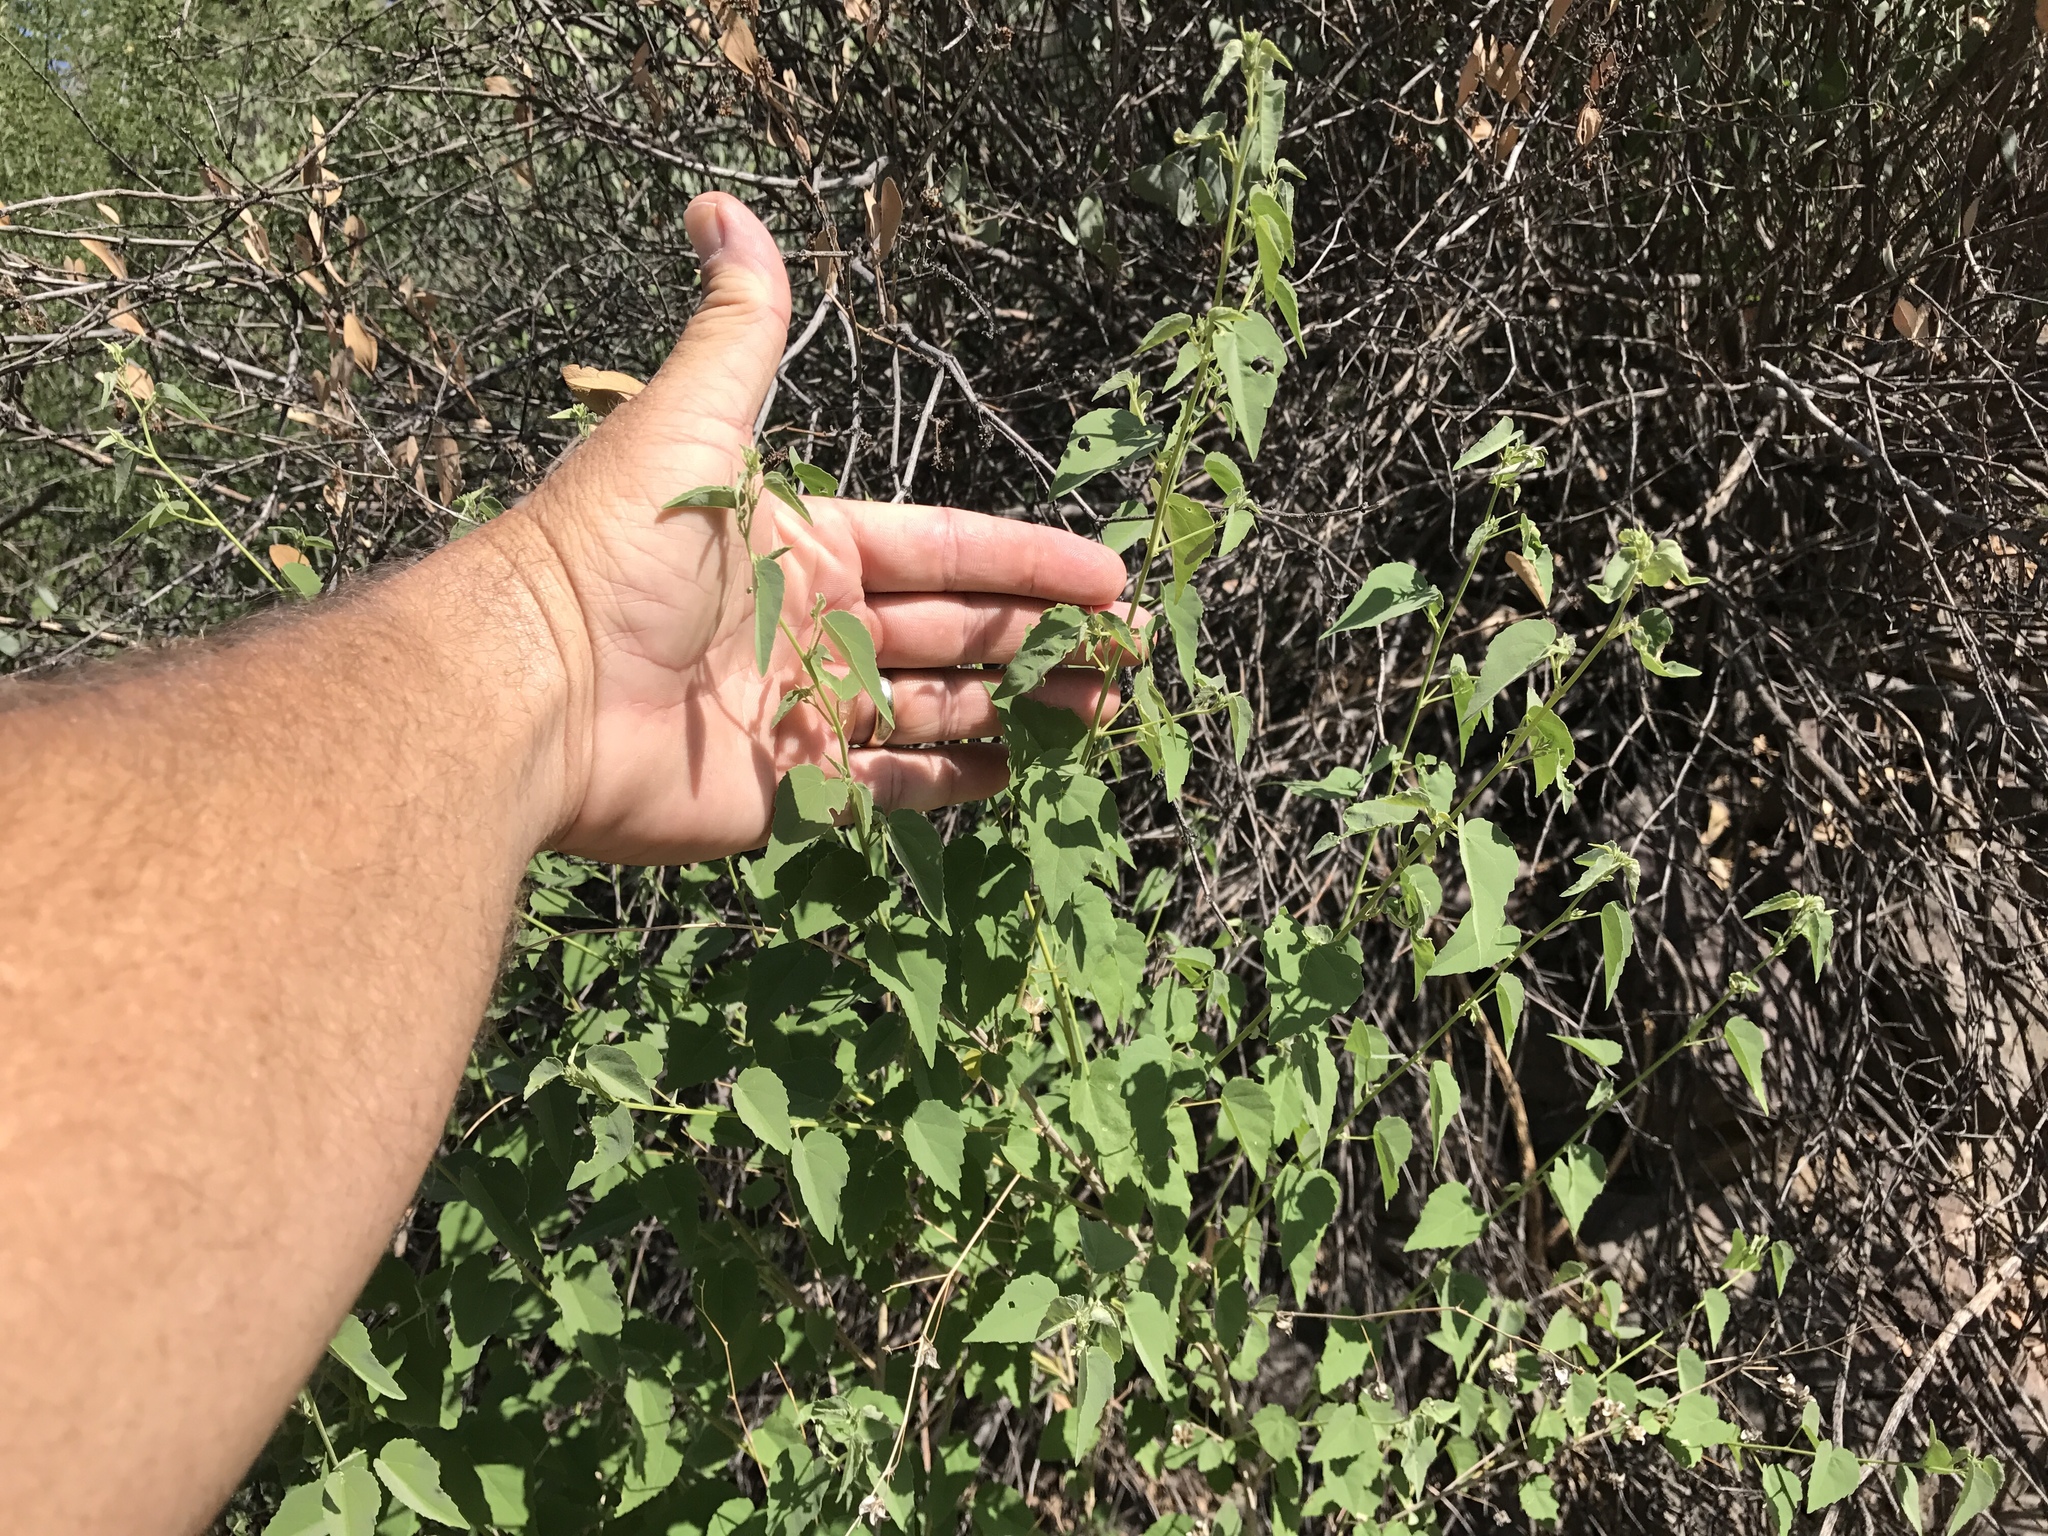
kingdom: Plantae
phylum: Tracheophyta
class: Magnoliopsida
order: Malvales
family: Malvaceae
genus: Abutilon
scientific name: Abutilon incanum
